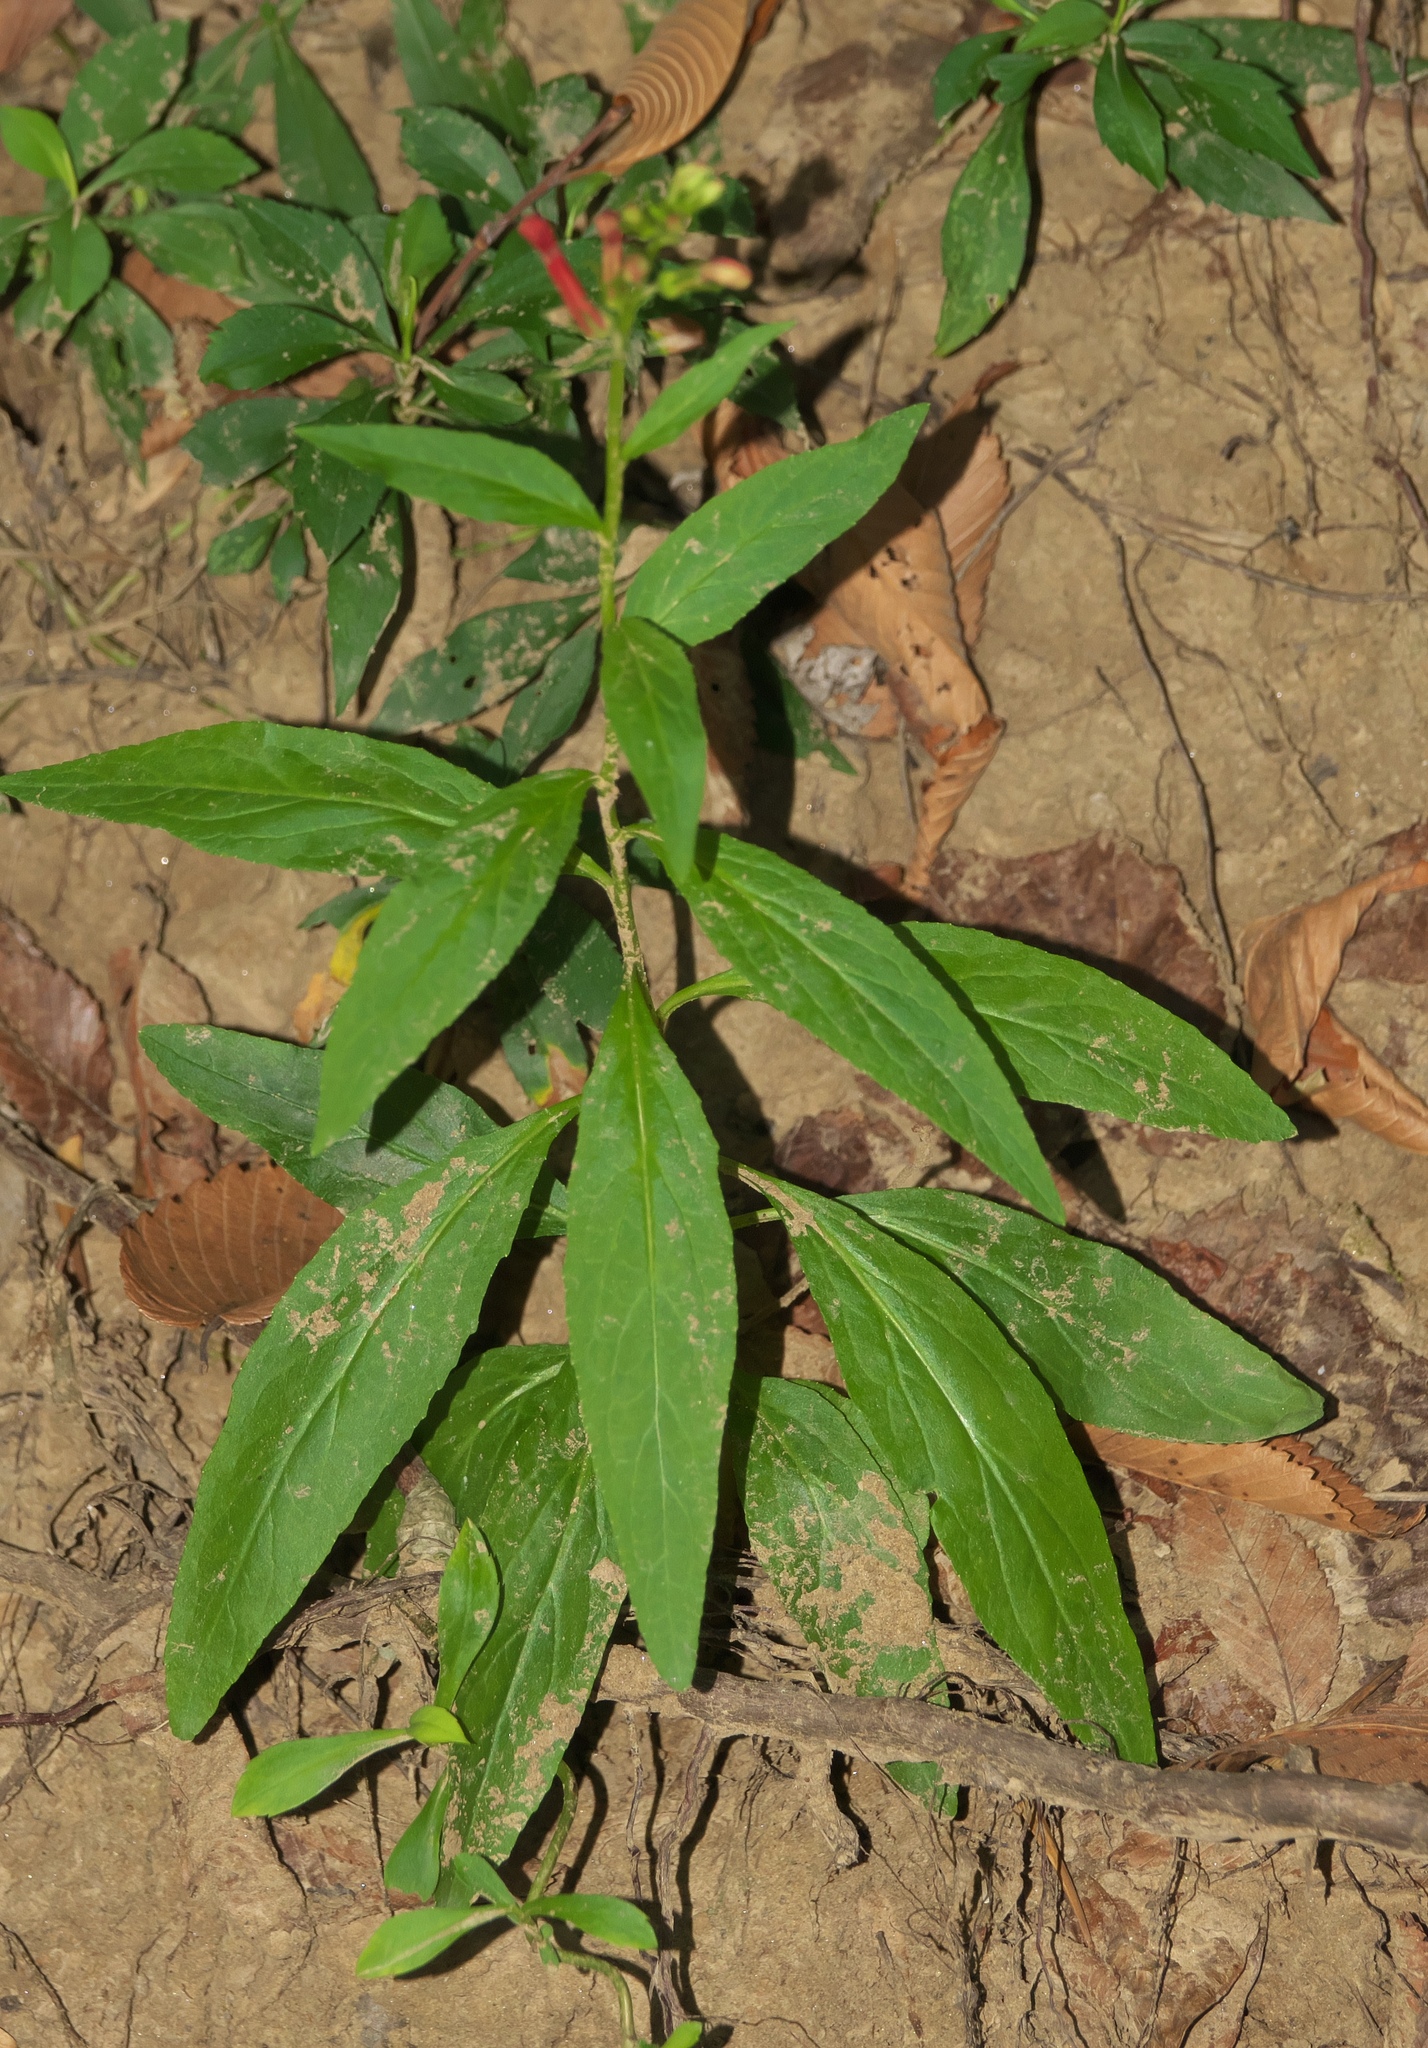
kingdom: Plantae
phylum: Tracheophyta
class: Magnoliopsida
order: Asterales
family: Campanulaceae
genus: Lobelia
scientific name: Lobelia cardinalis
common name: Cardinal flower
